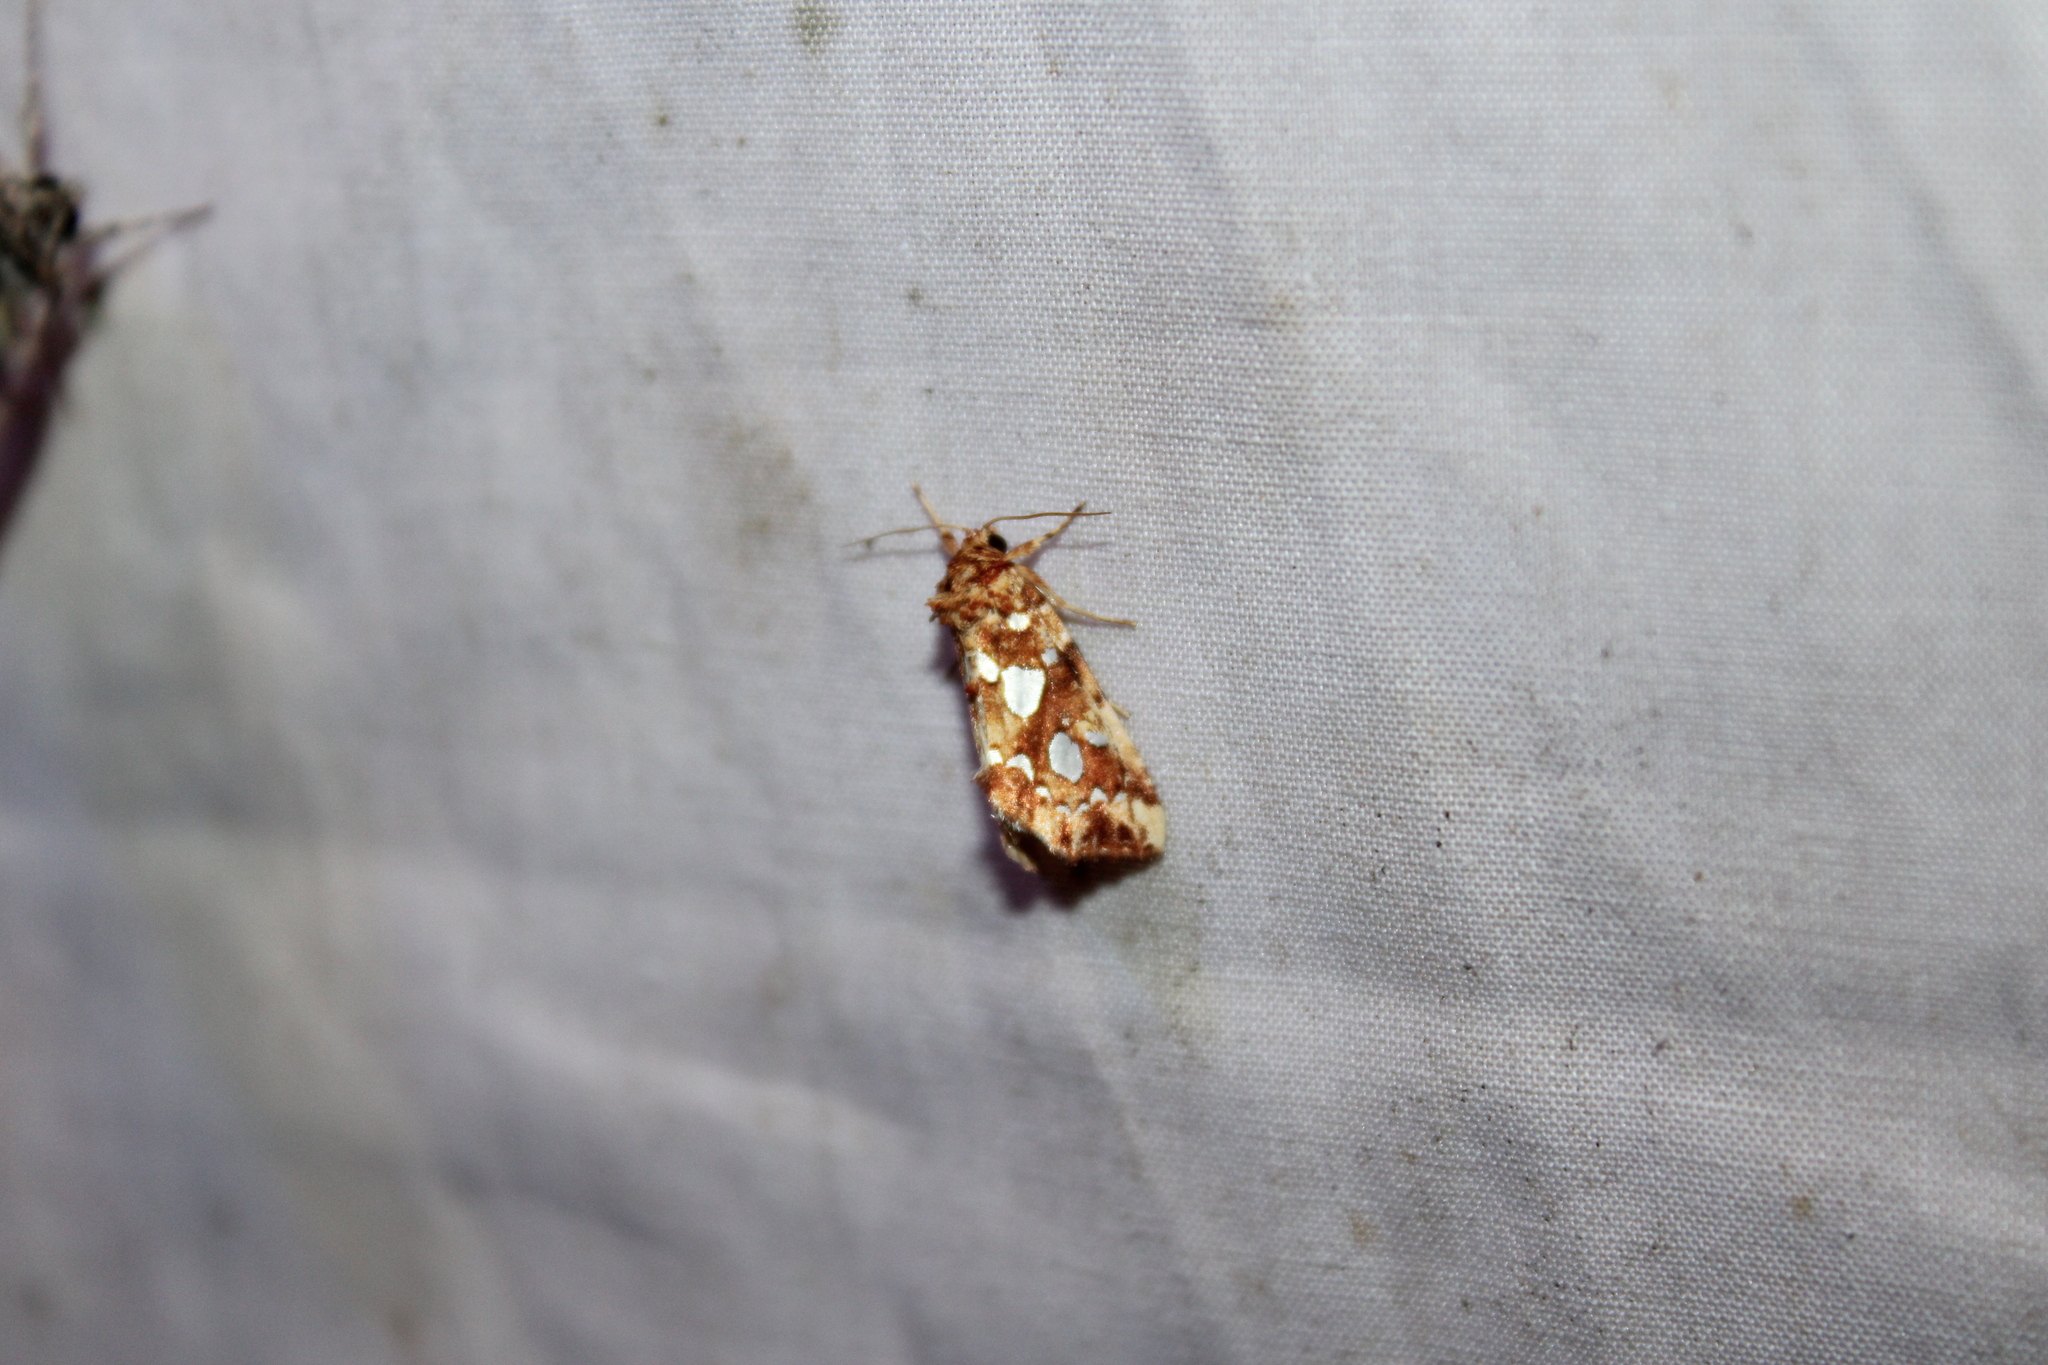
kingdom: Animalia
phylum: Arthropoda
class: Insecta
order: Lepidoptera
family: Noctuidae
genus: Callopistria
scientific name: Callopistria cordata
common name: Silver-spotted fern moth
